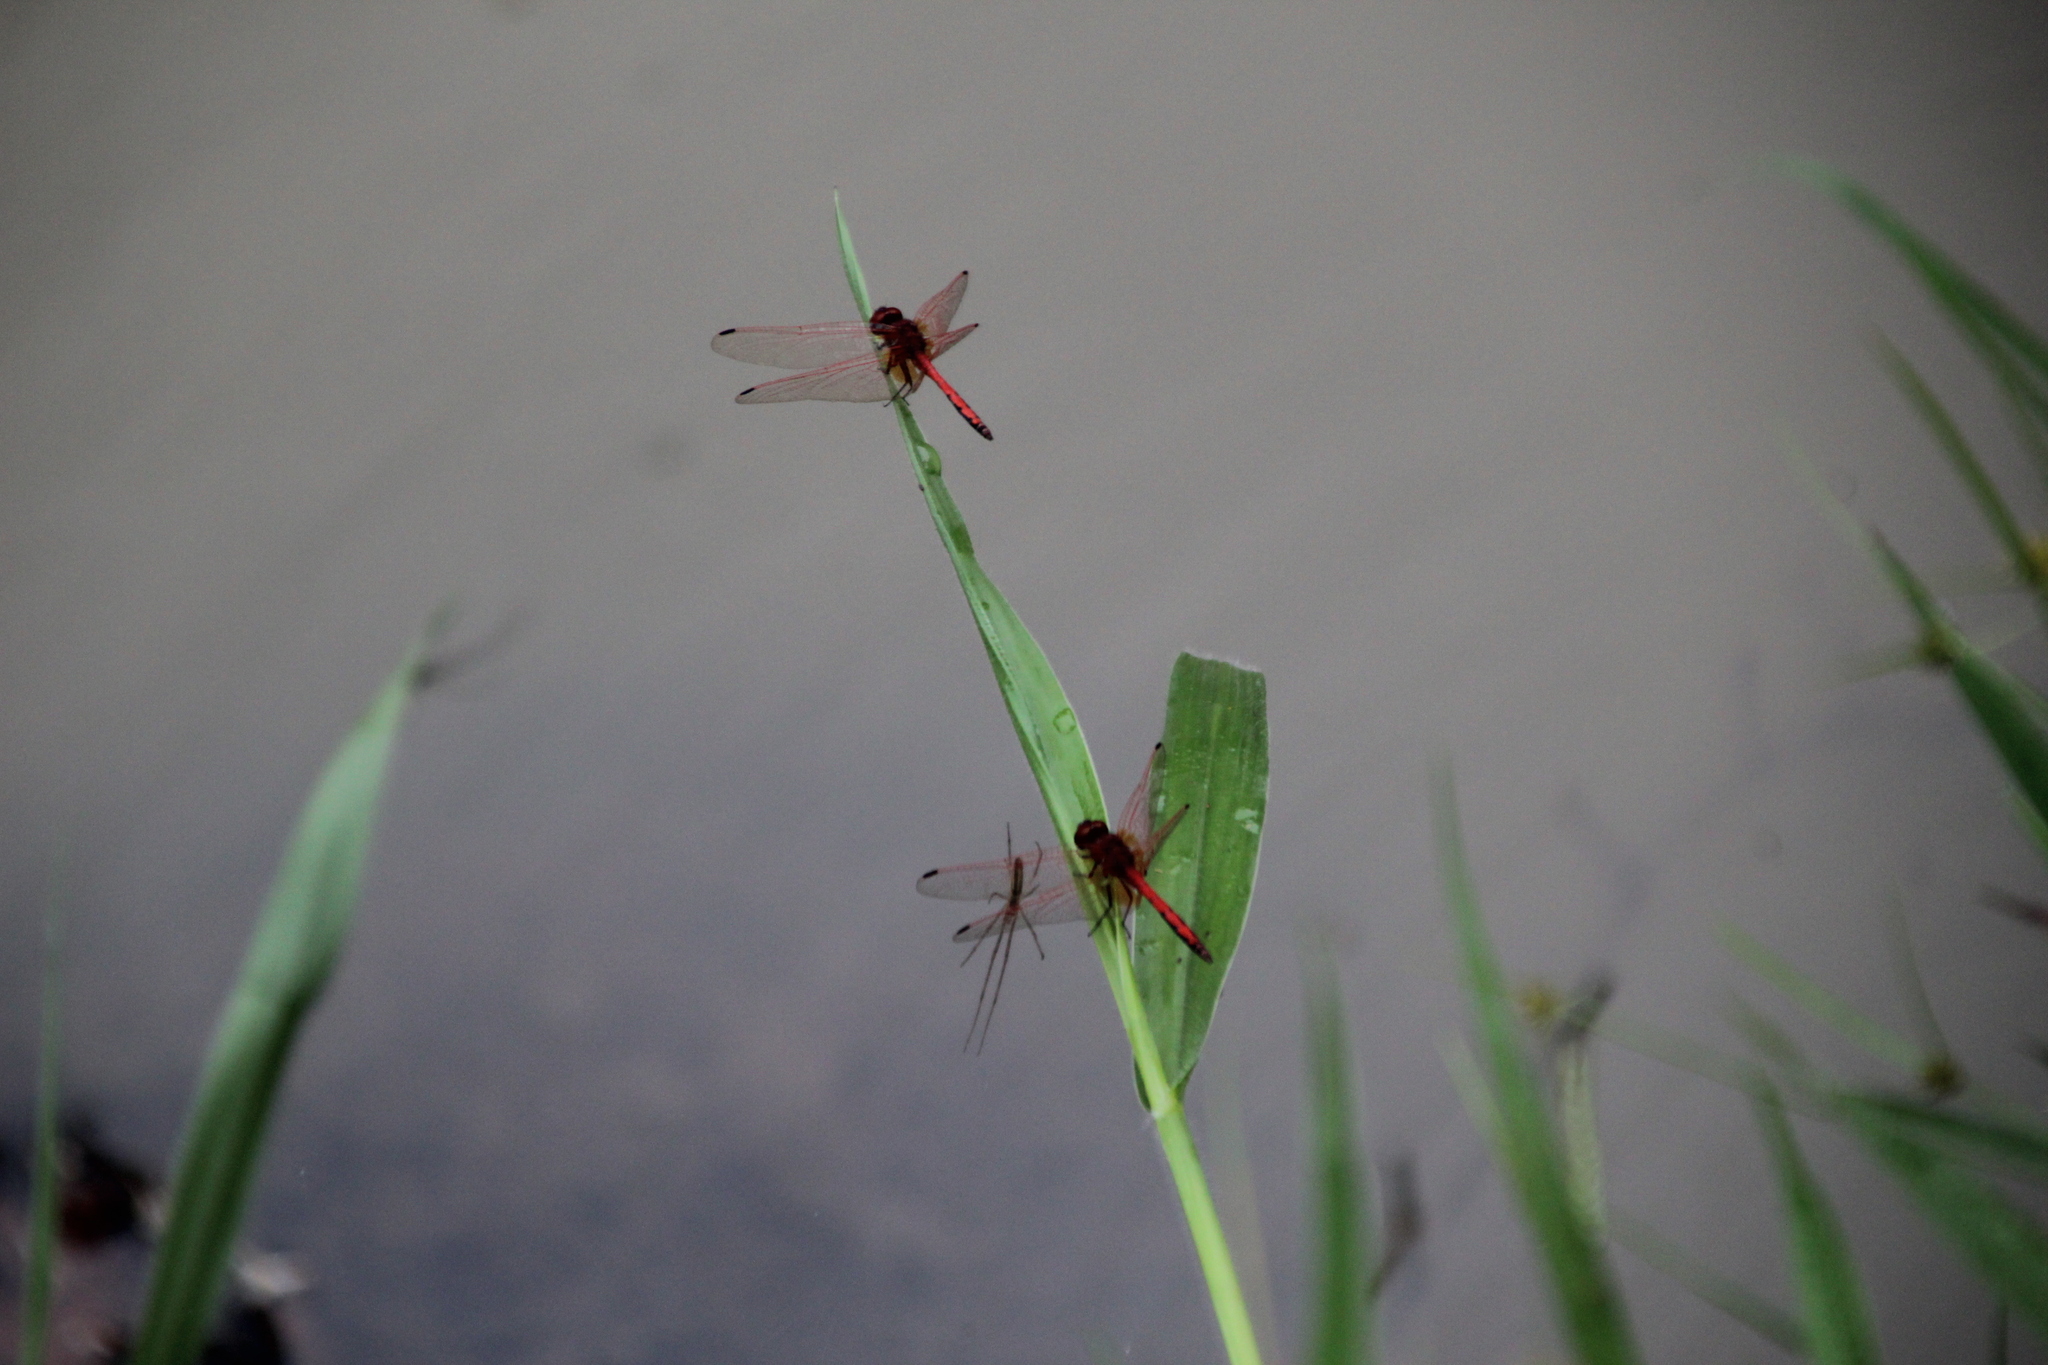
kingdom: Animalia
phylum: Arthropoda
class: Insecta
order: Odonata
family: Libellulidae
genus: Trithemis
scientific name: Trithemis arteriosa
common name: Red-veined dropwing
